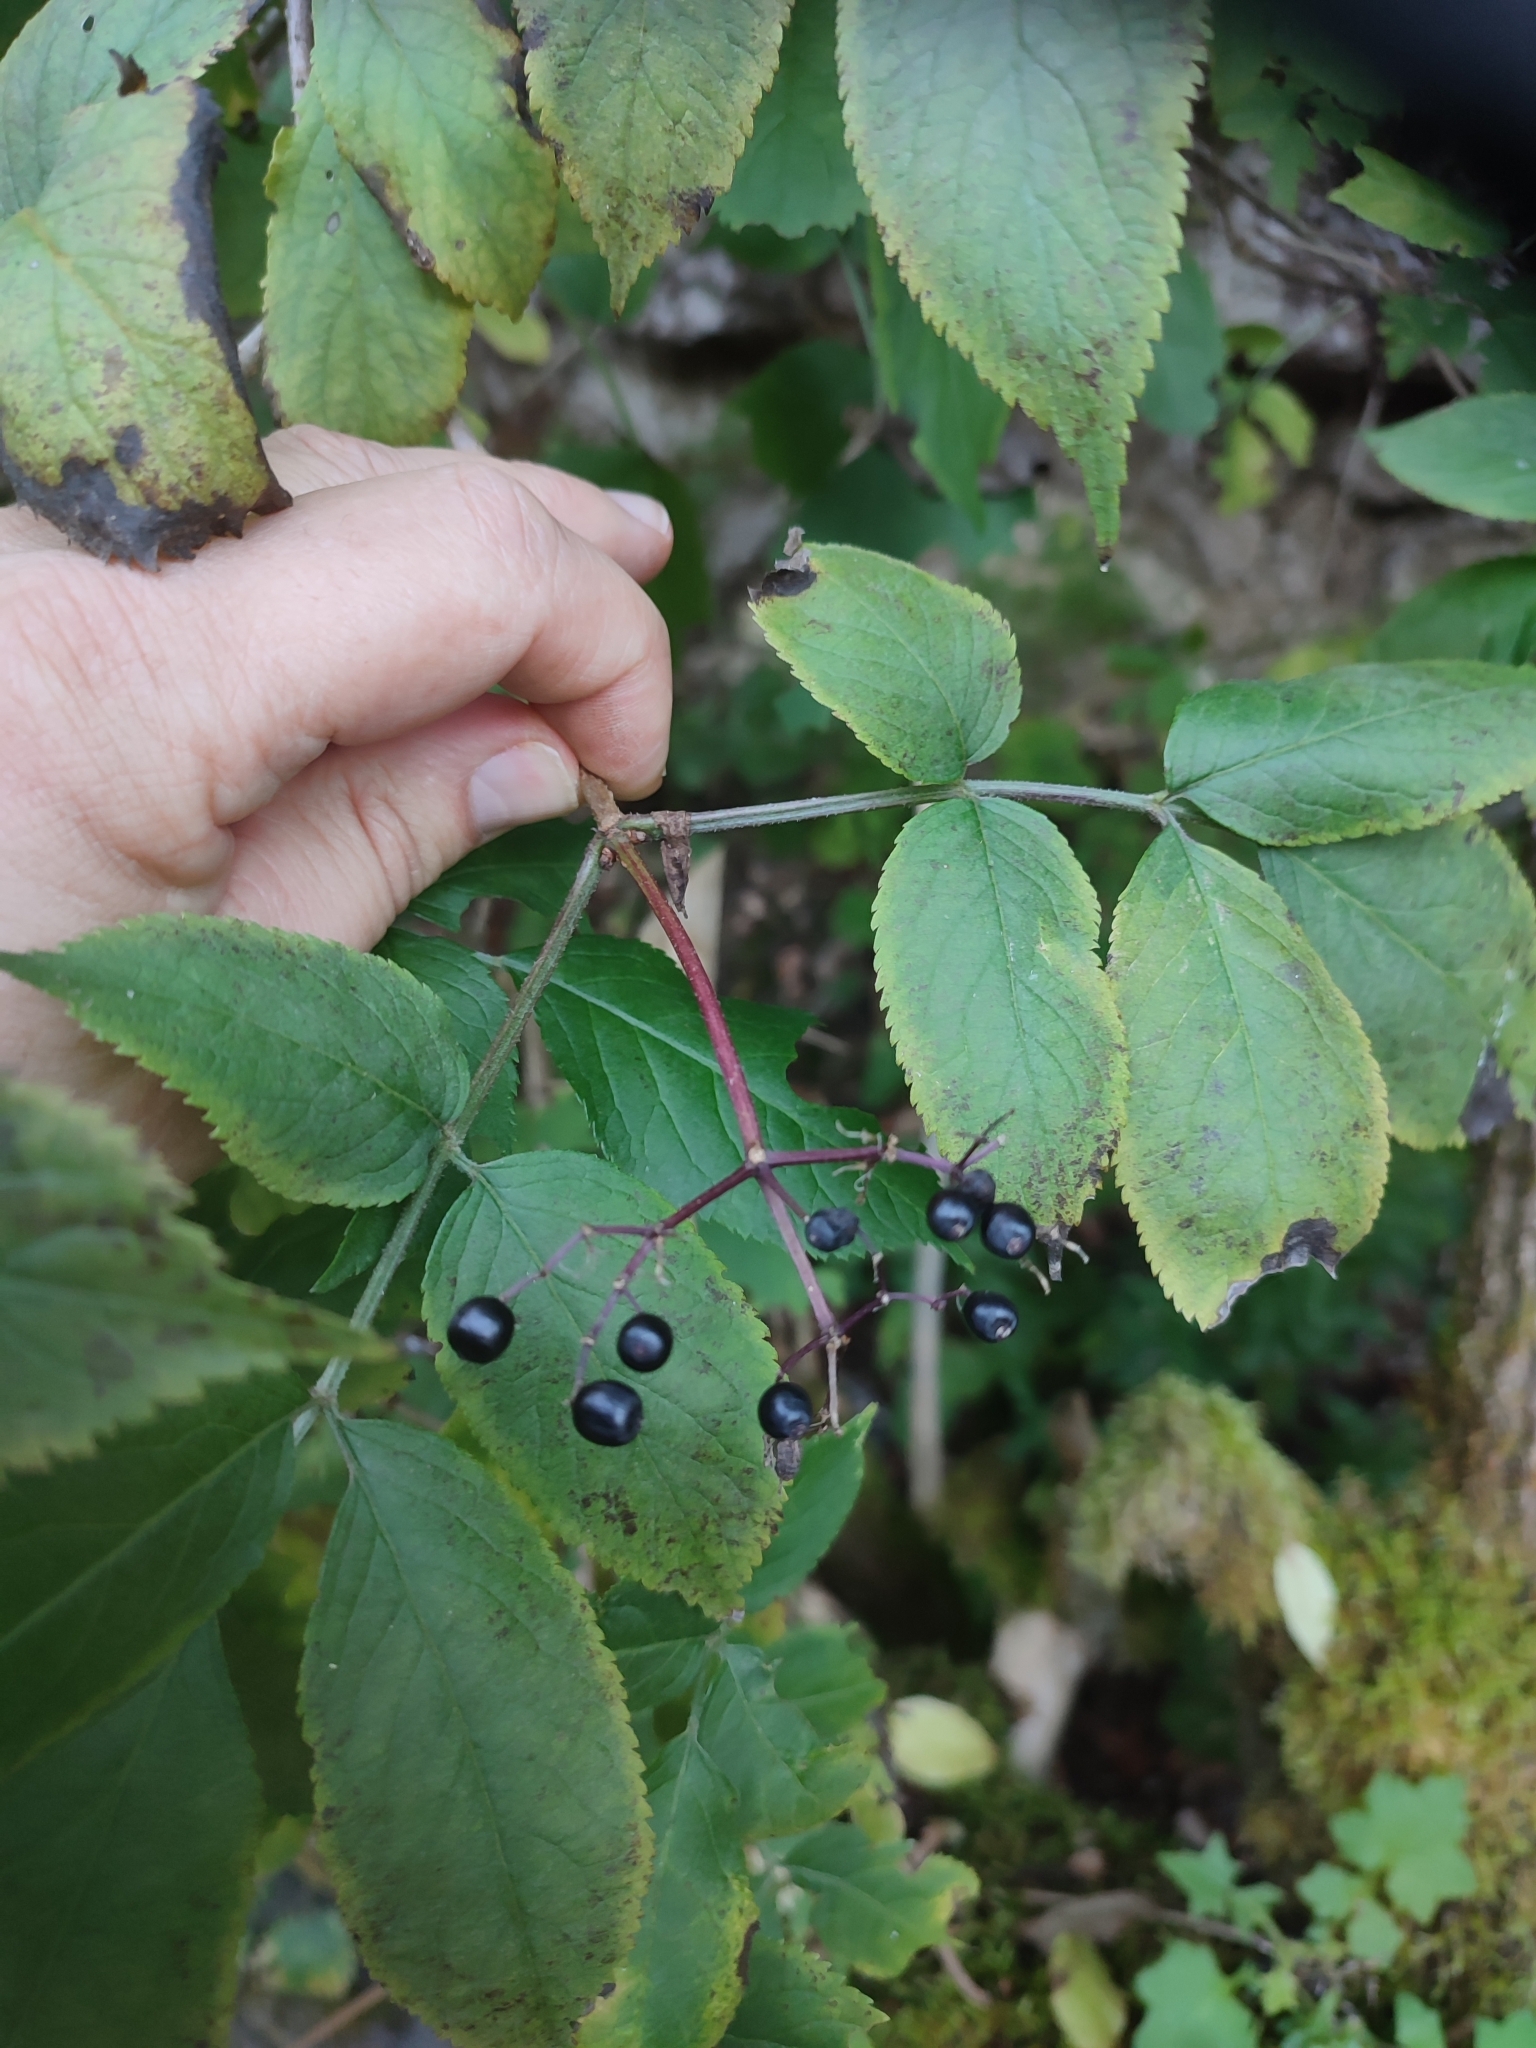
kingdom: Plantae
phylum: Tracheophyta
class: Magnoliopsida
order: Dipsacales
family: Viburnaceae
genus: Sambucus
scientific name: Sambucus nigra
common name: Elder
